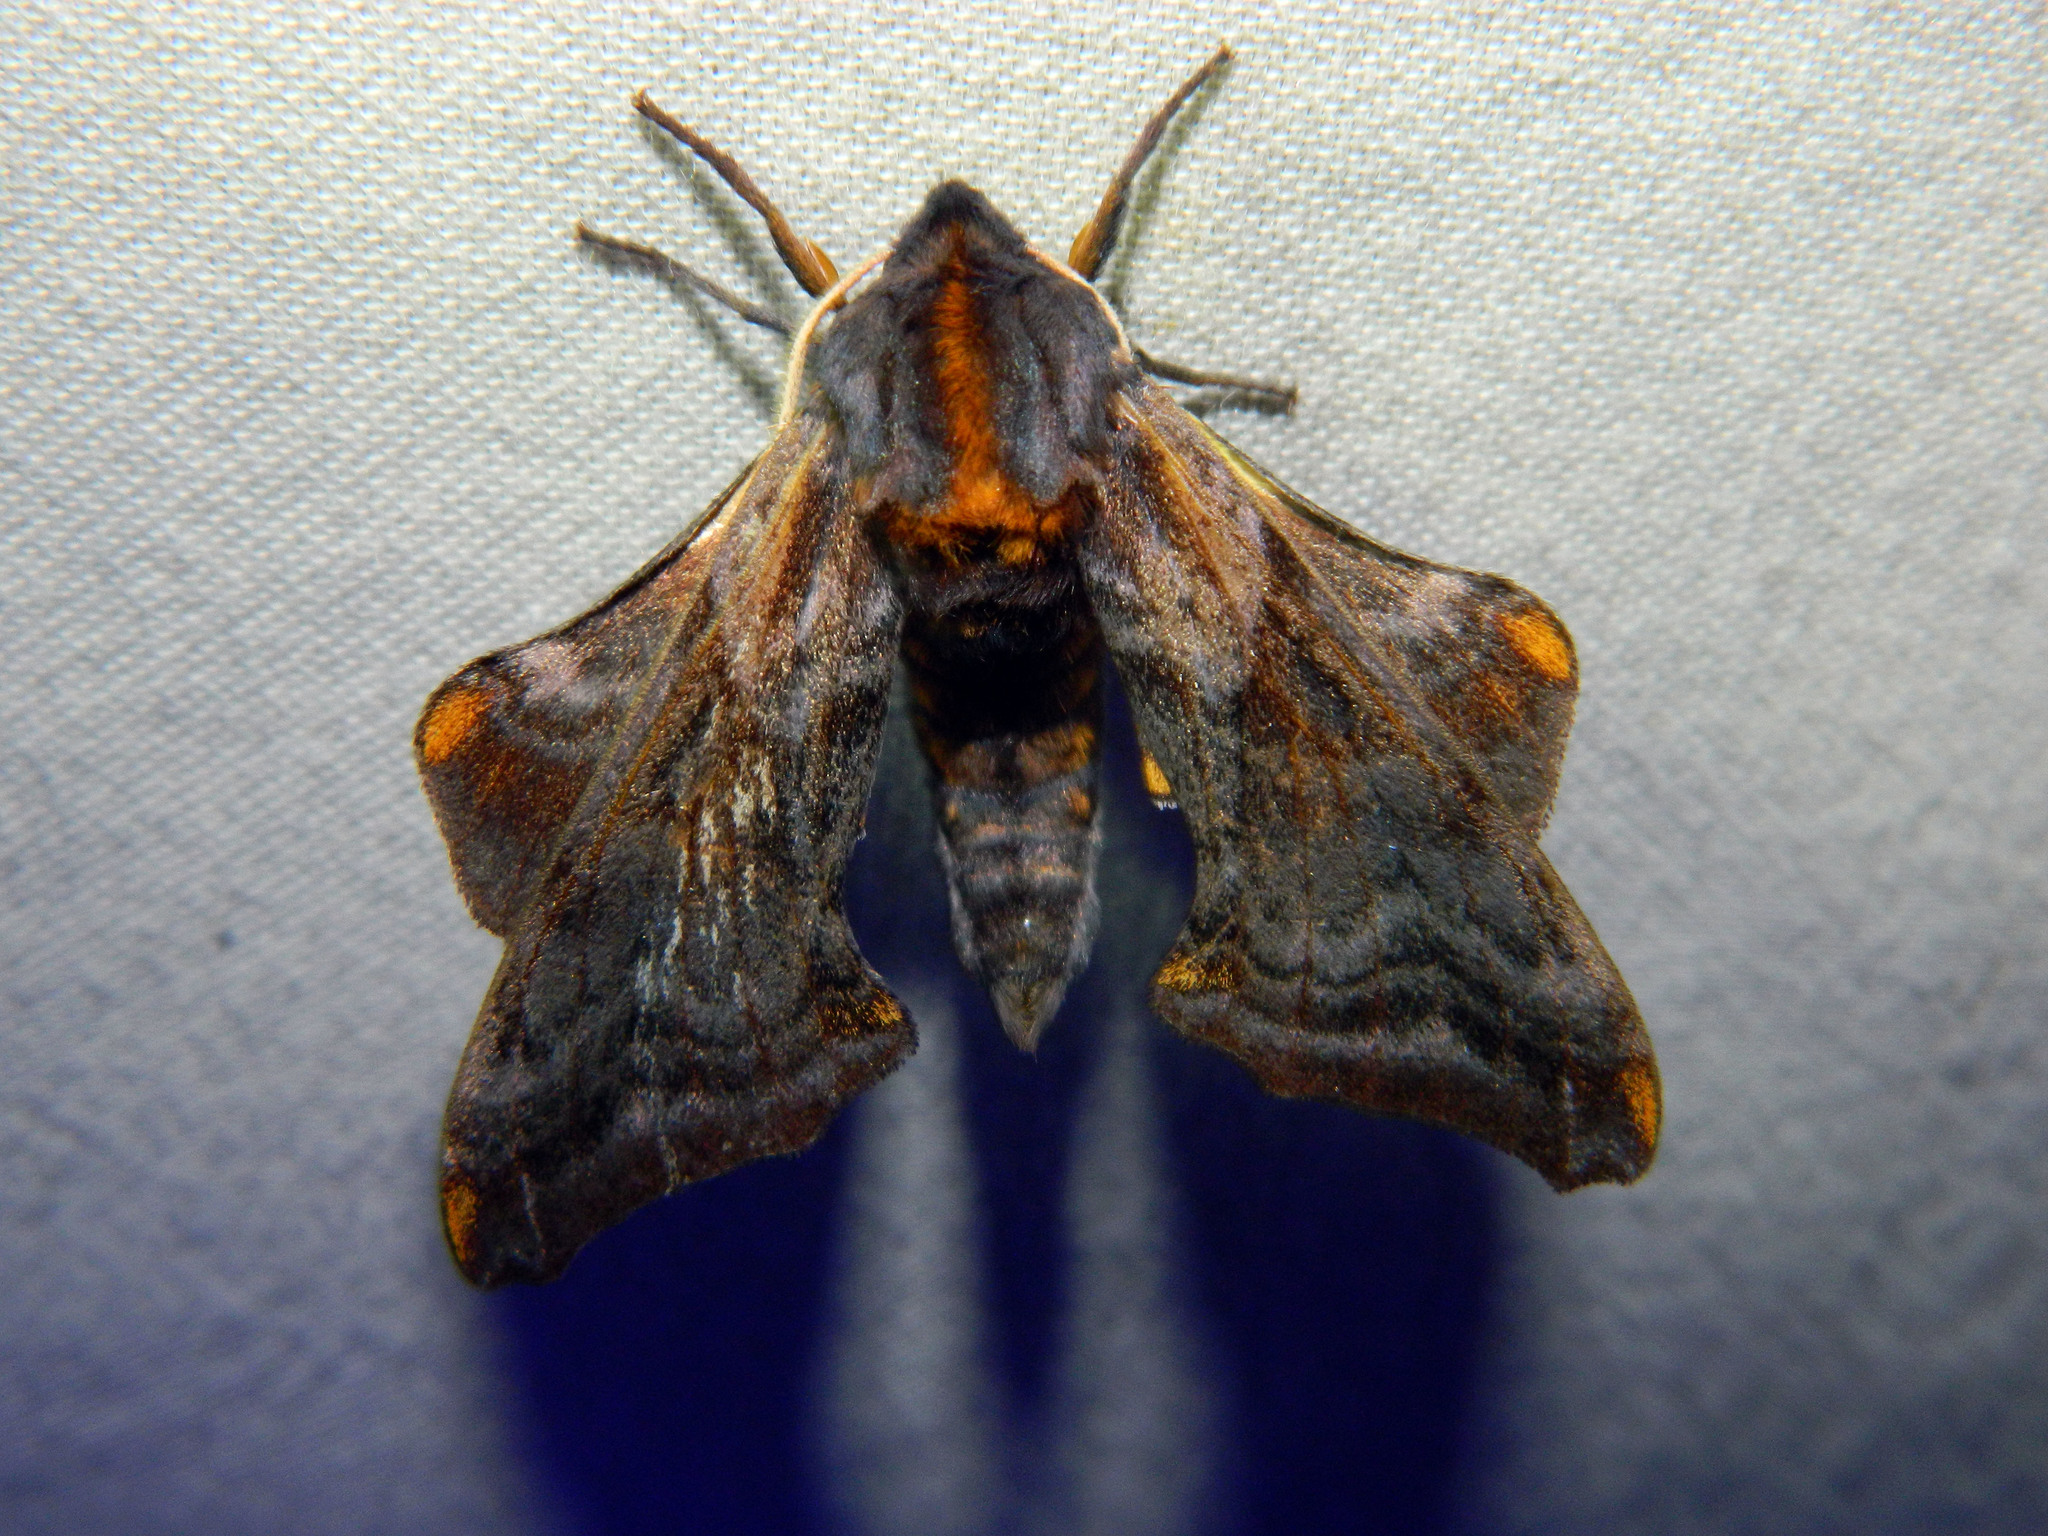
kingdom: Animalia
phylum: Arthropoda
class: Insecta
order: Lepidoptera
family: Sphingidae
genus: Paonias
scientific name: Paonias myops
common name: Small-eyed sphinx
